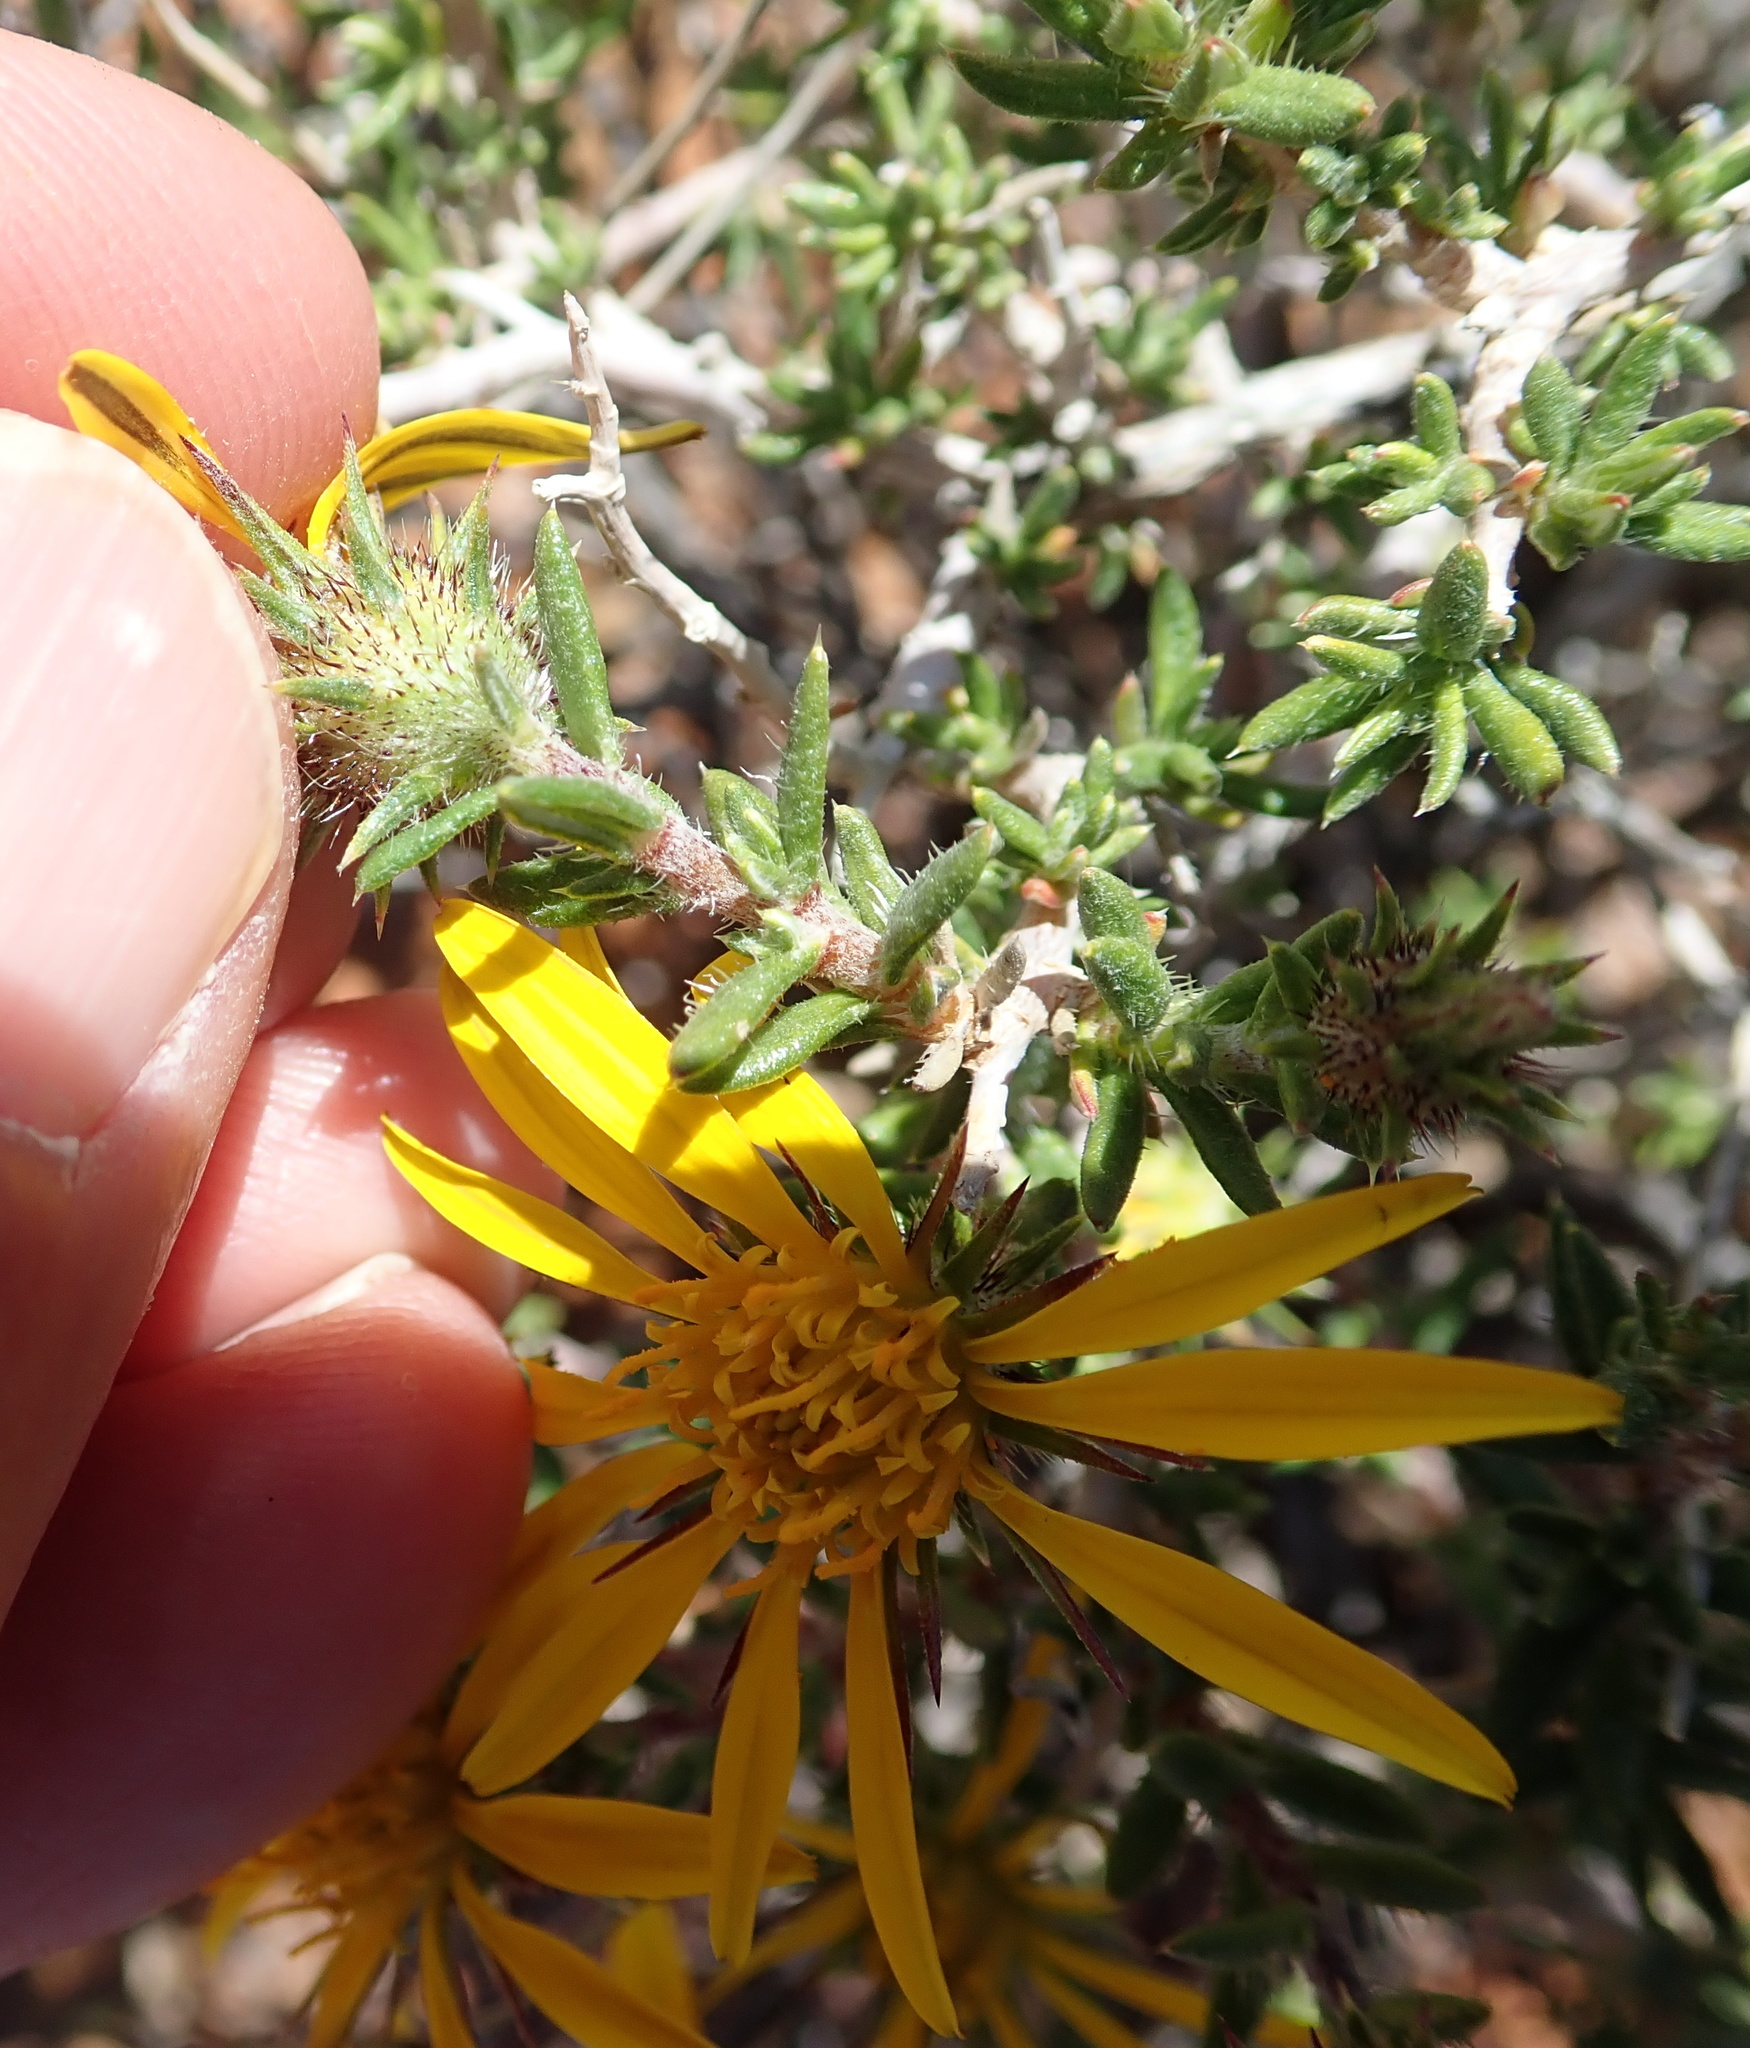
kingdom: Plantae
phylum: Tracheophyta
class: Magnoliopsida
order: Asterales
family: Asteraceae
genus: Gorteria
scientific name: Gorteria alienata
